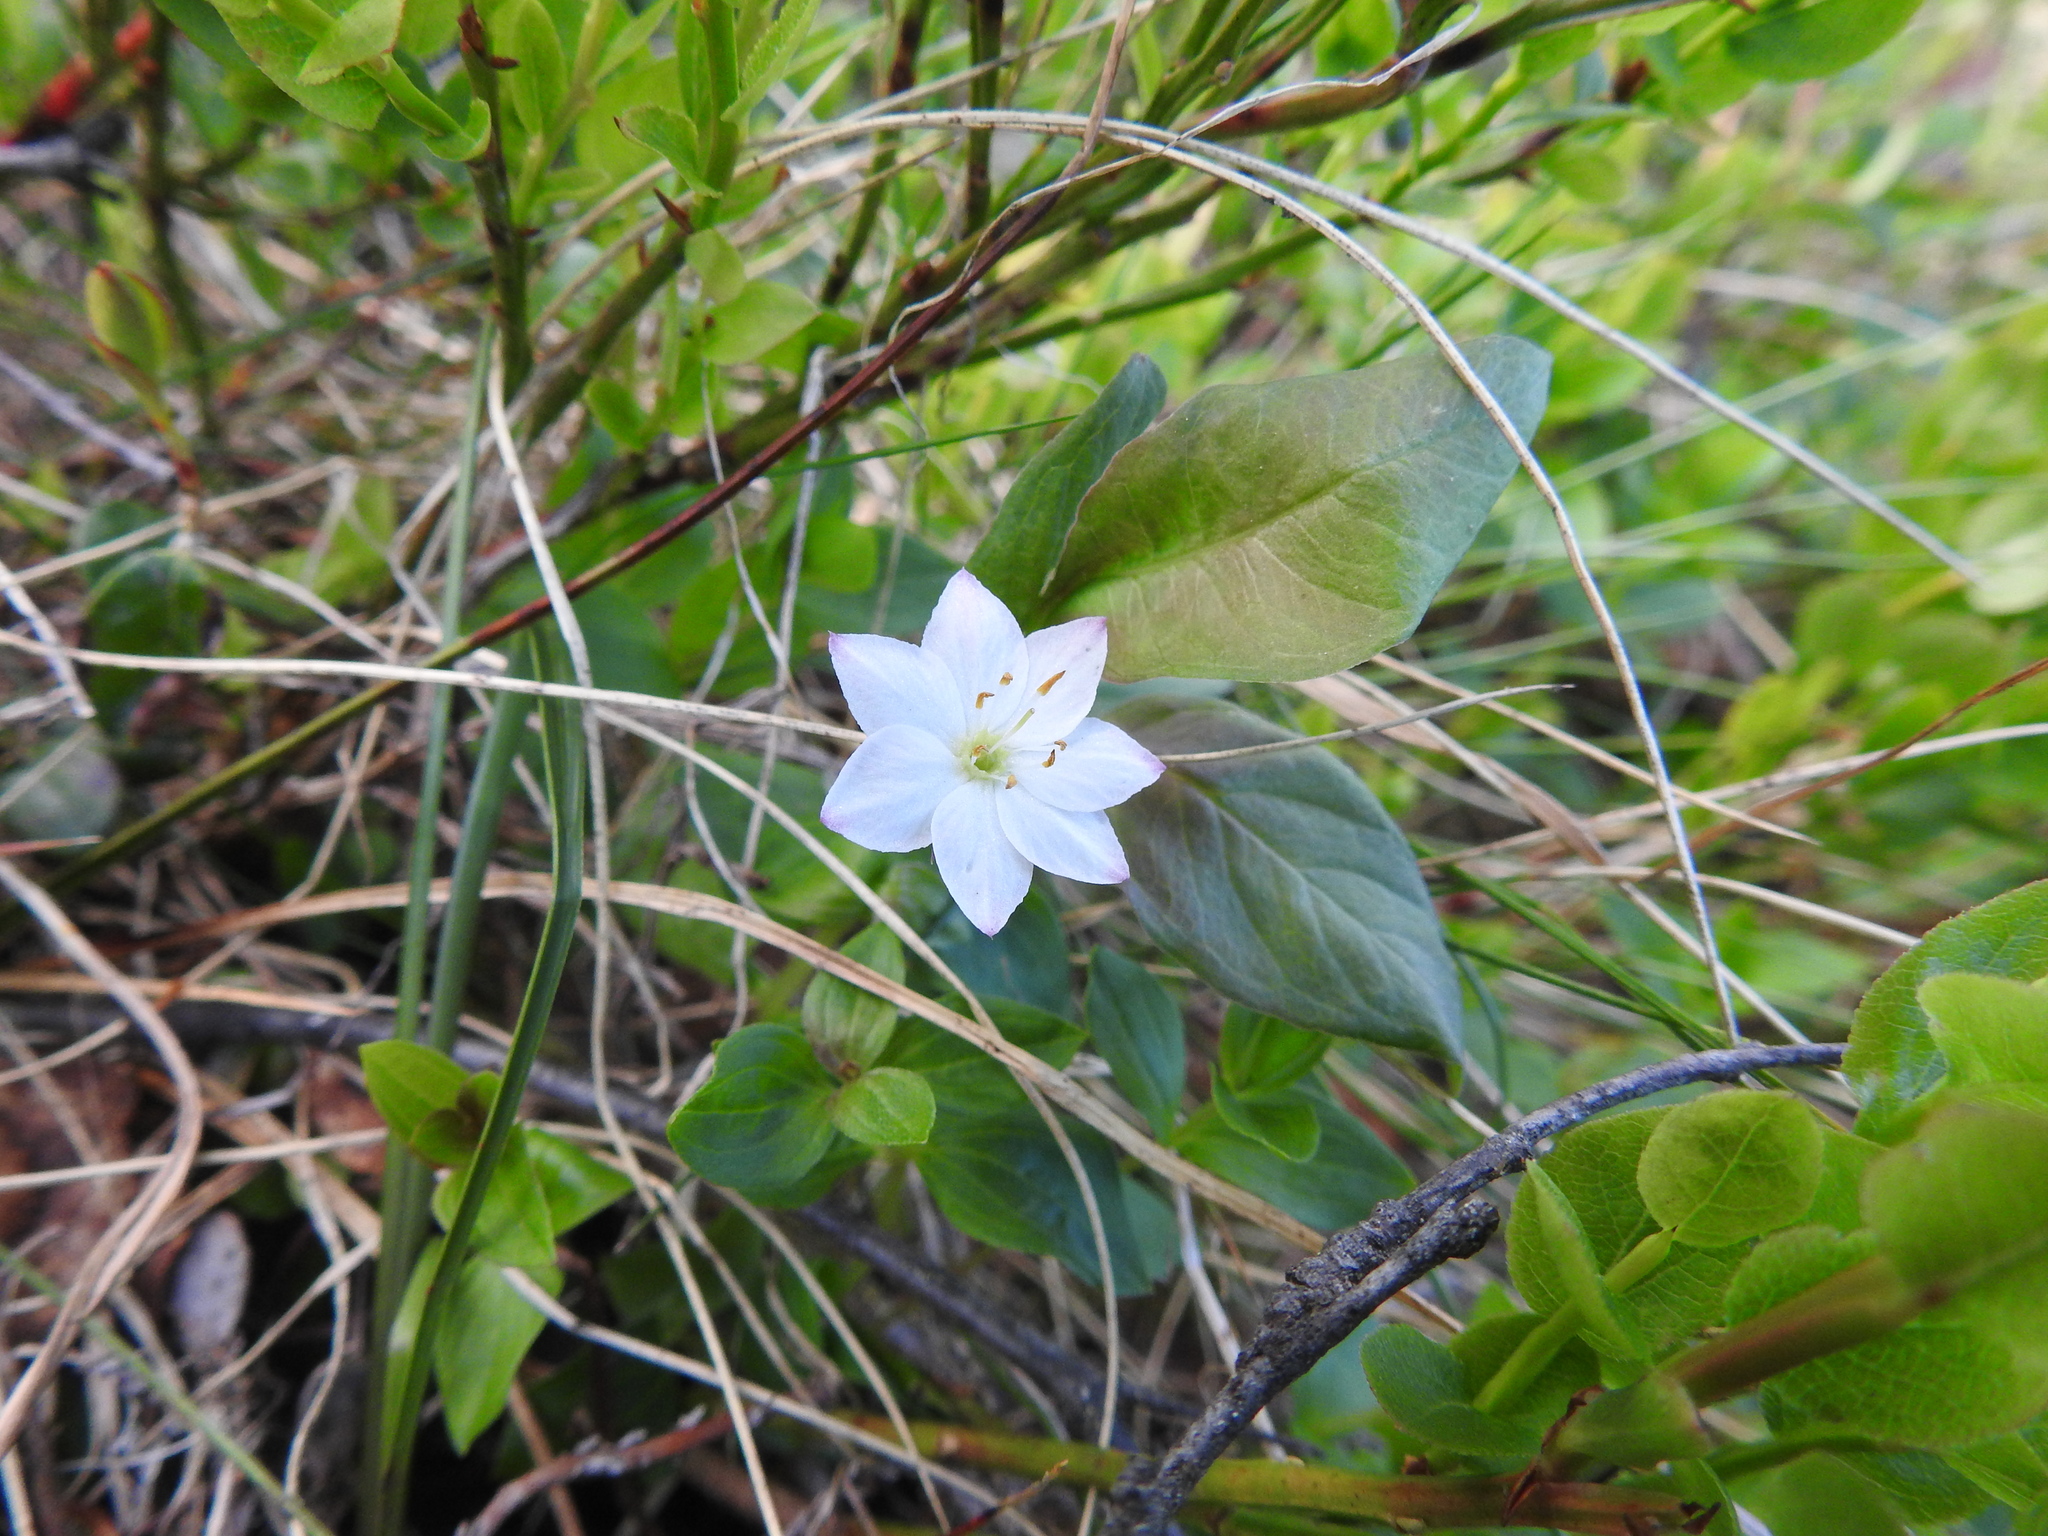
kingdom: Plantae
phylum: Tracheophyta
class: Magnoliopsida
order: Ericales
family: Primulaceae
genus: Lysimachia
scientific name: Lysimachia europaea
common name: Arctic starflower
